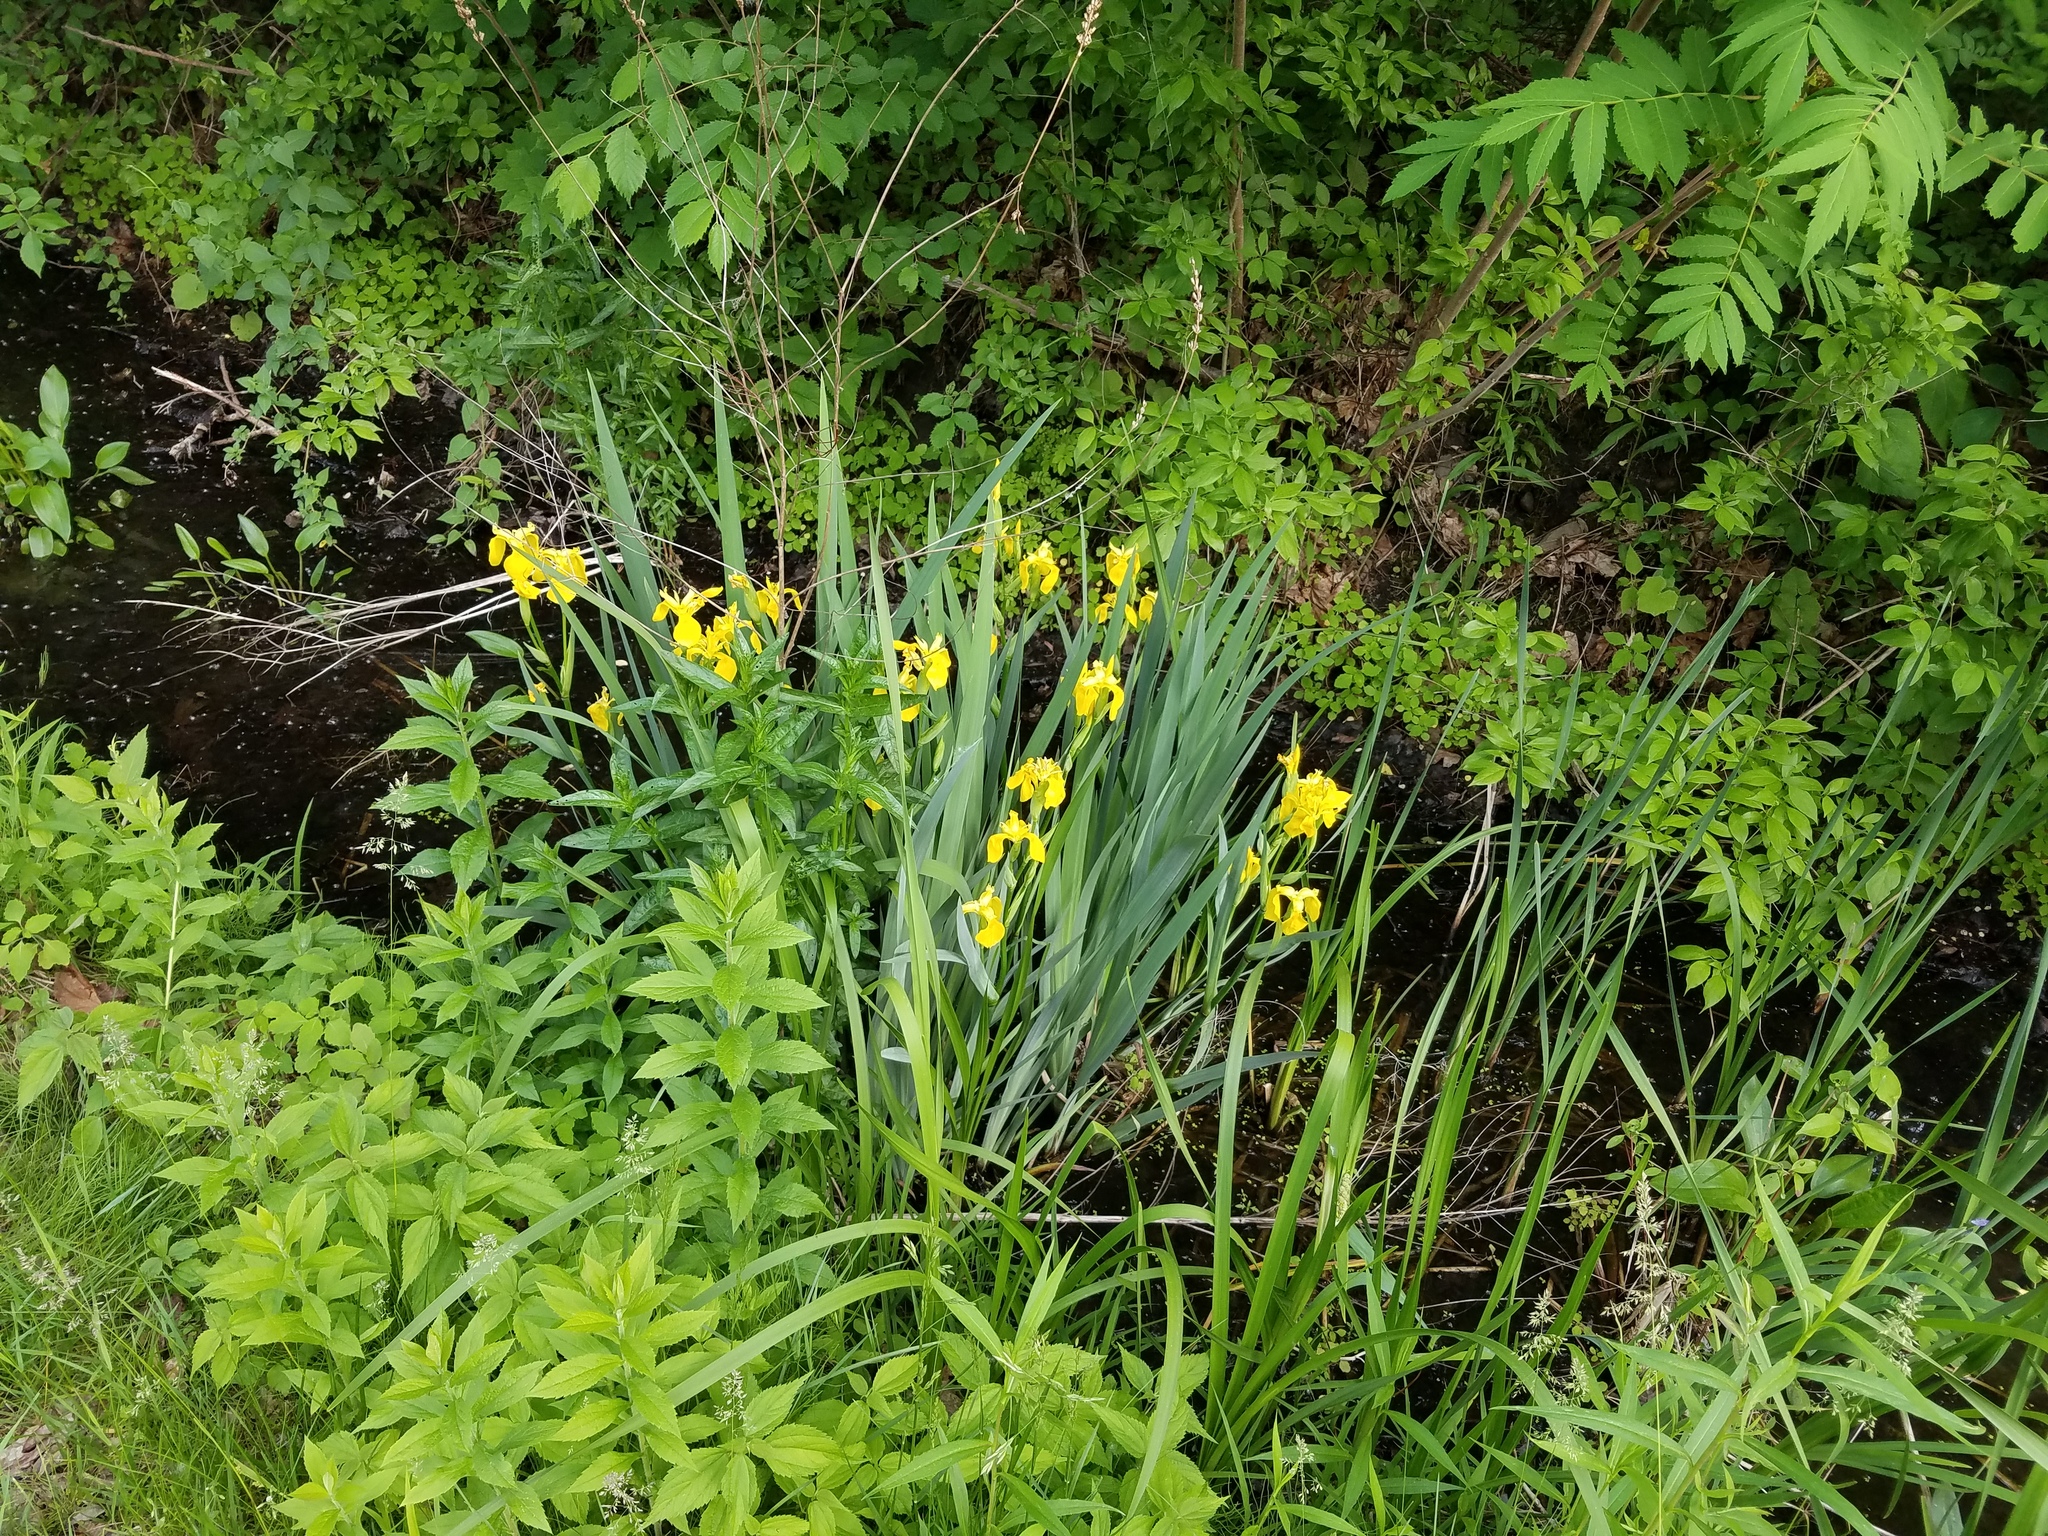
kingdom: Plantae
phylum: Tracheophyta
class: Liliopsida
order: Asparagales
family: Iridaceae
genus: Iris
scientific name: Iris pseudacorus
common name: Yellow flag
